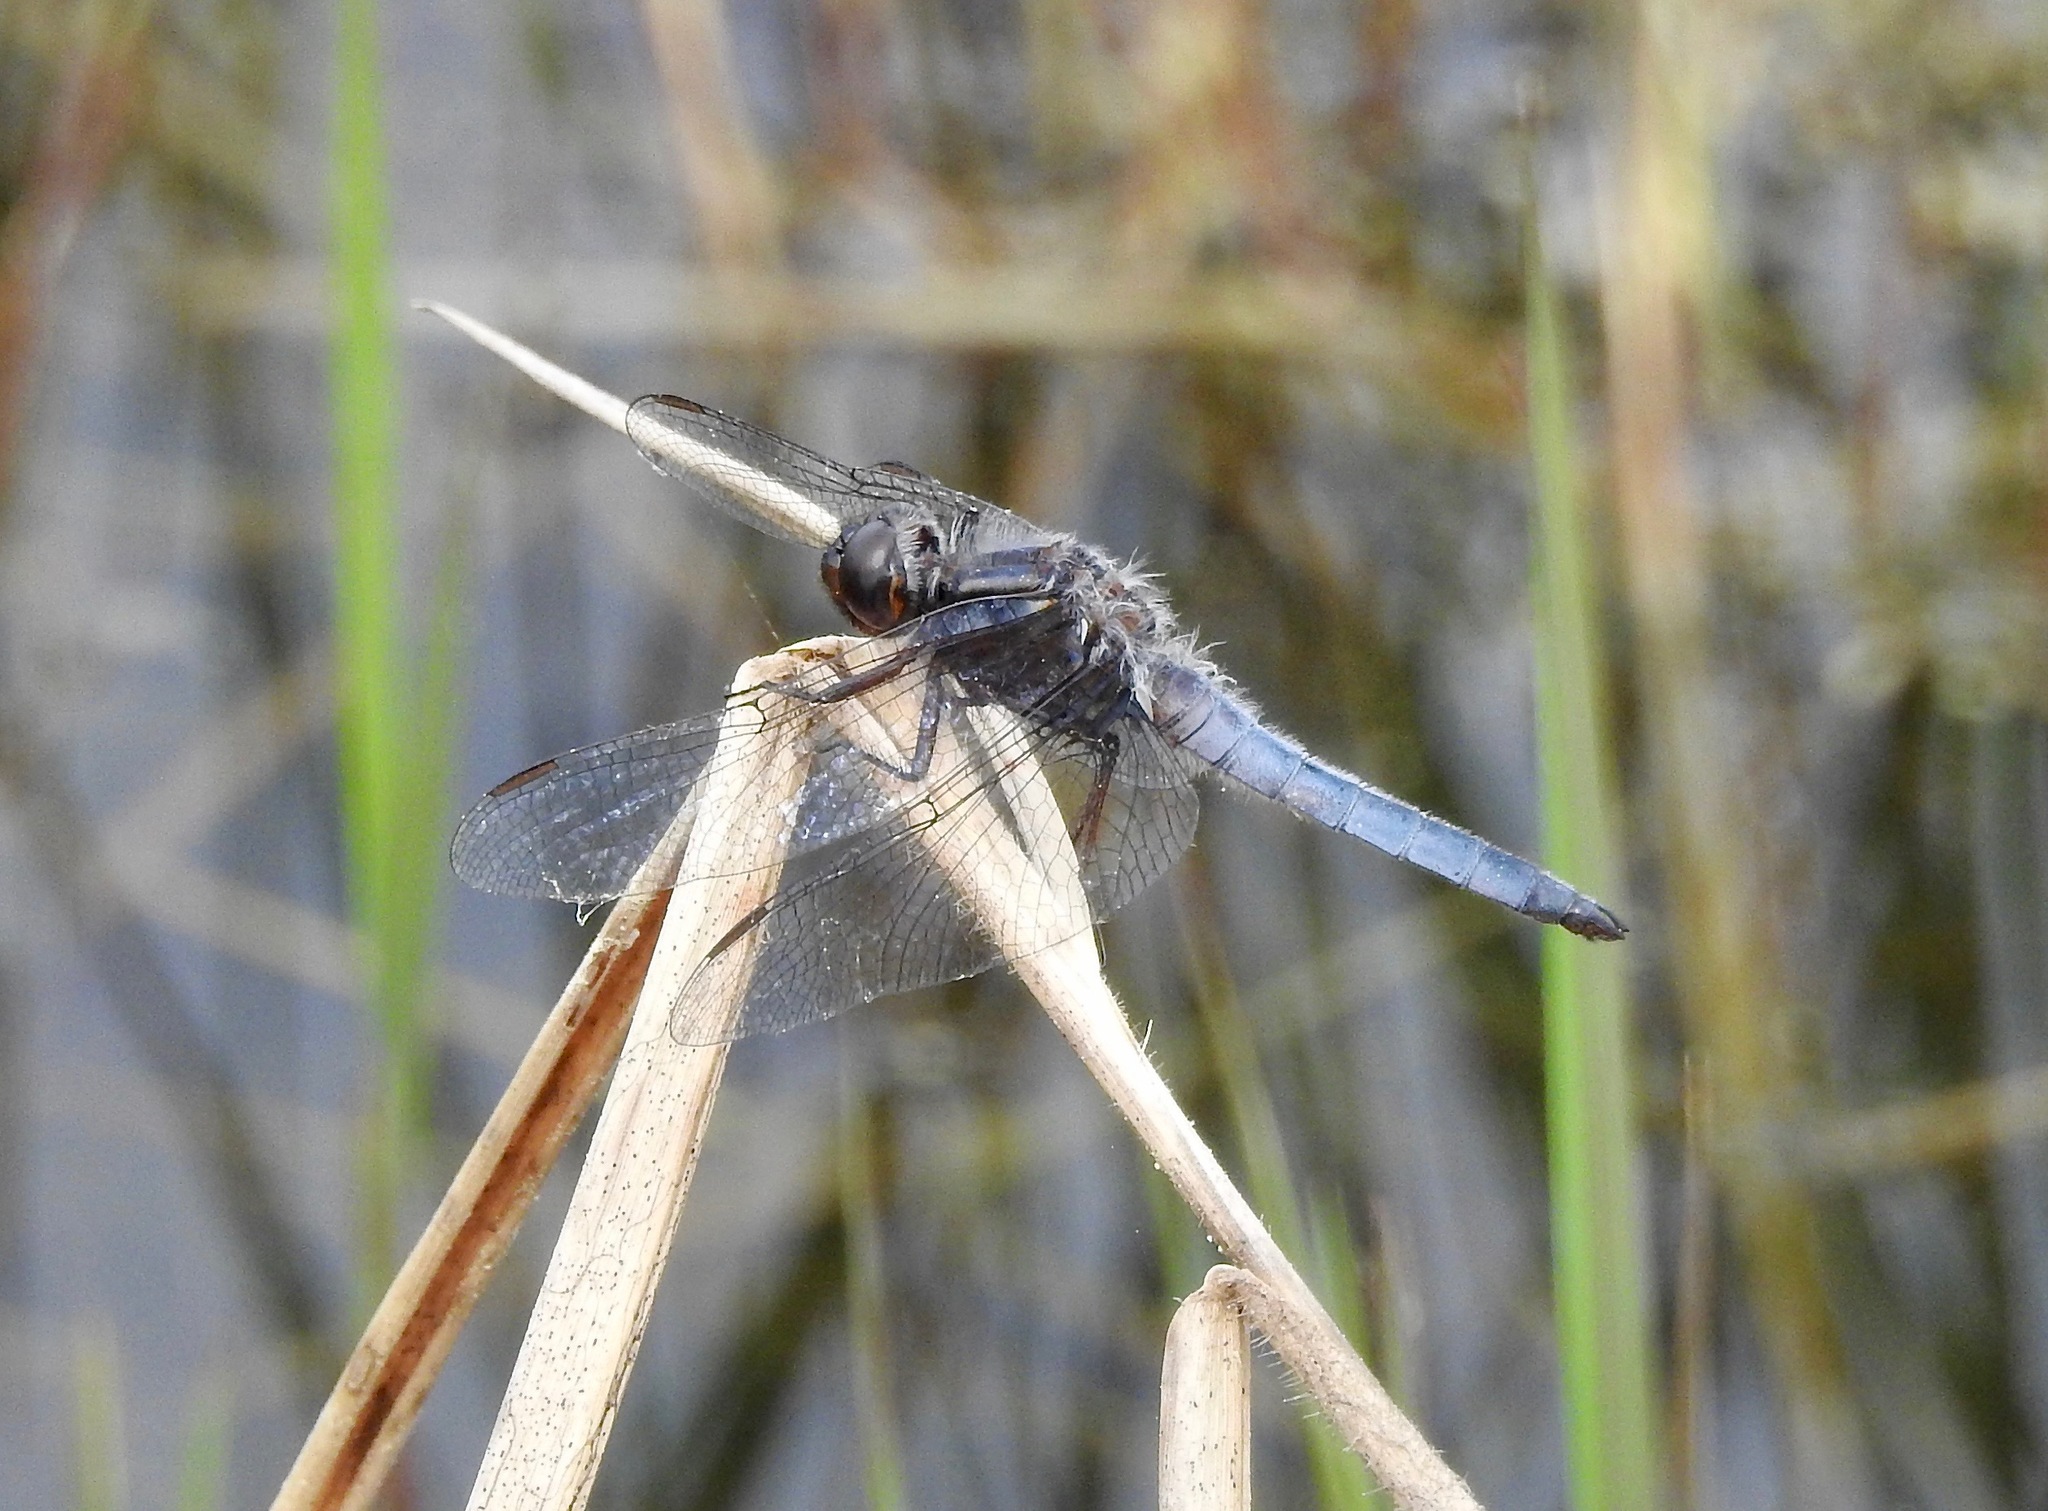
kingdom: Animalia
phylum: Arthropoda
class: Insecta
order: Odonata
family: Libellulidae
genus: Ladona
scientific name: Ladona deplanata
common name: Blue corporal
